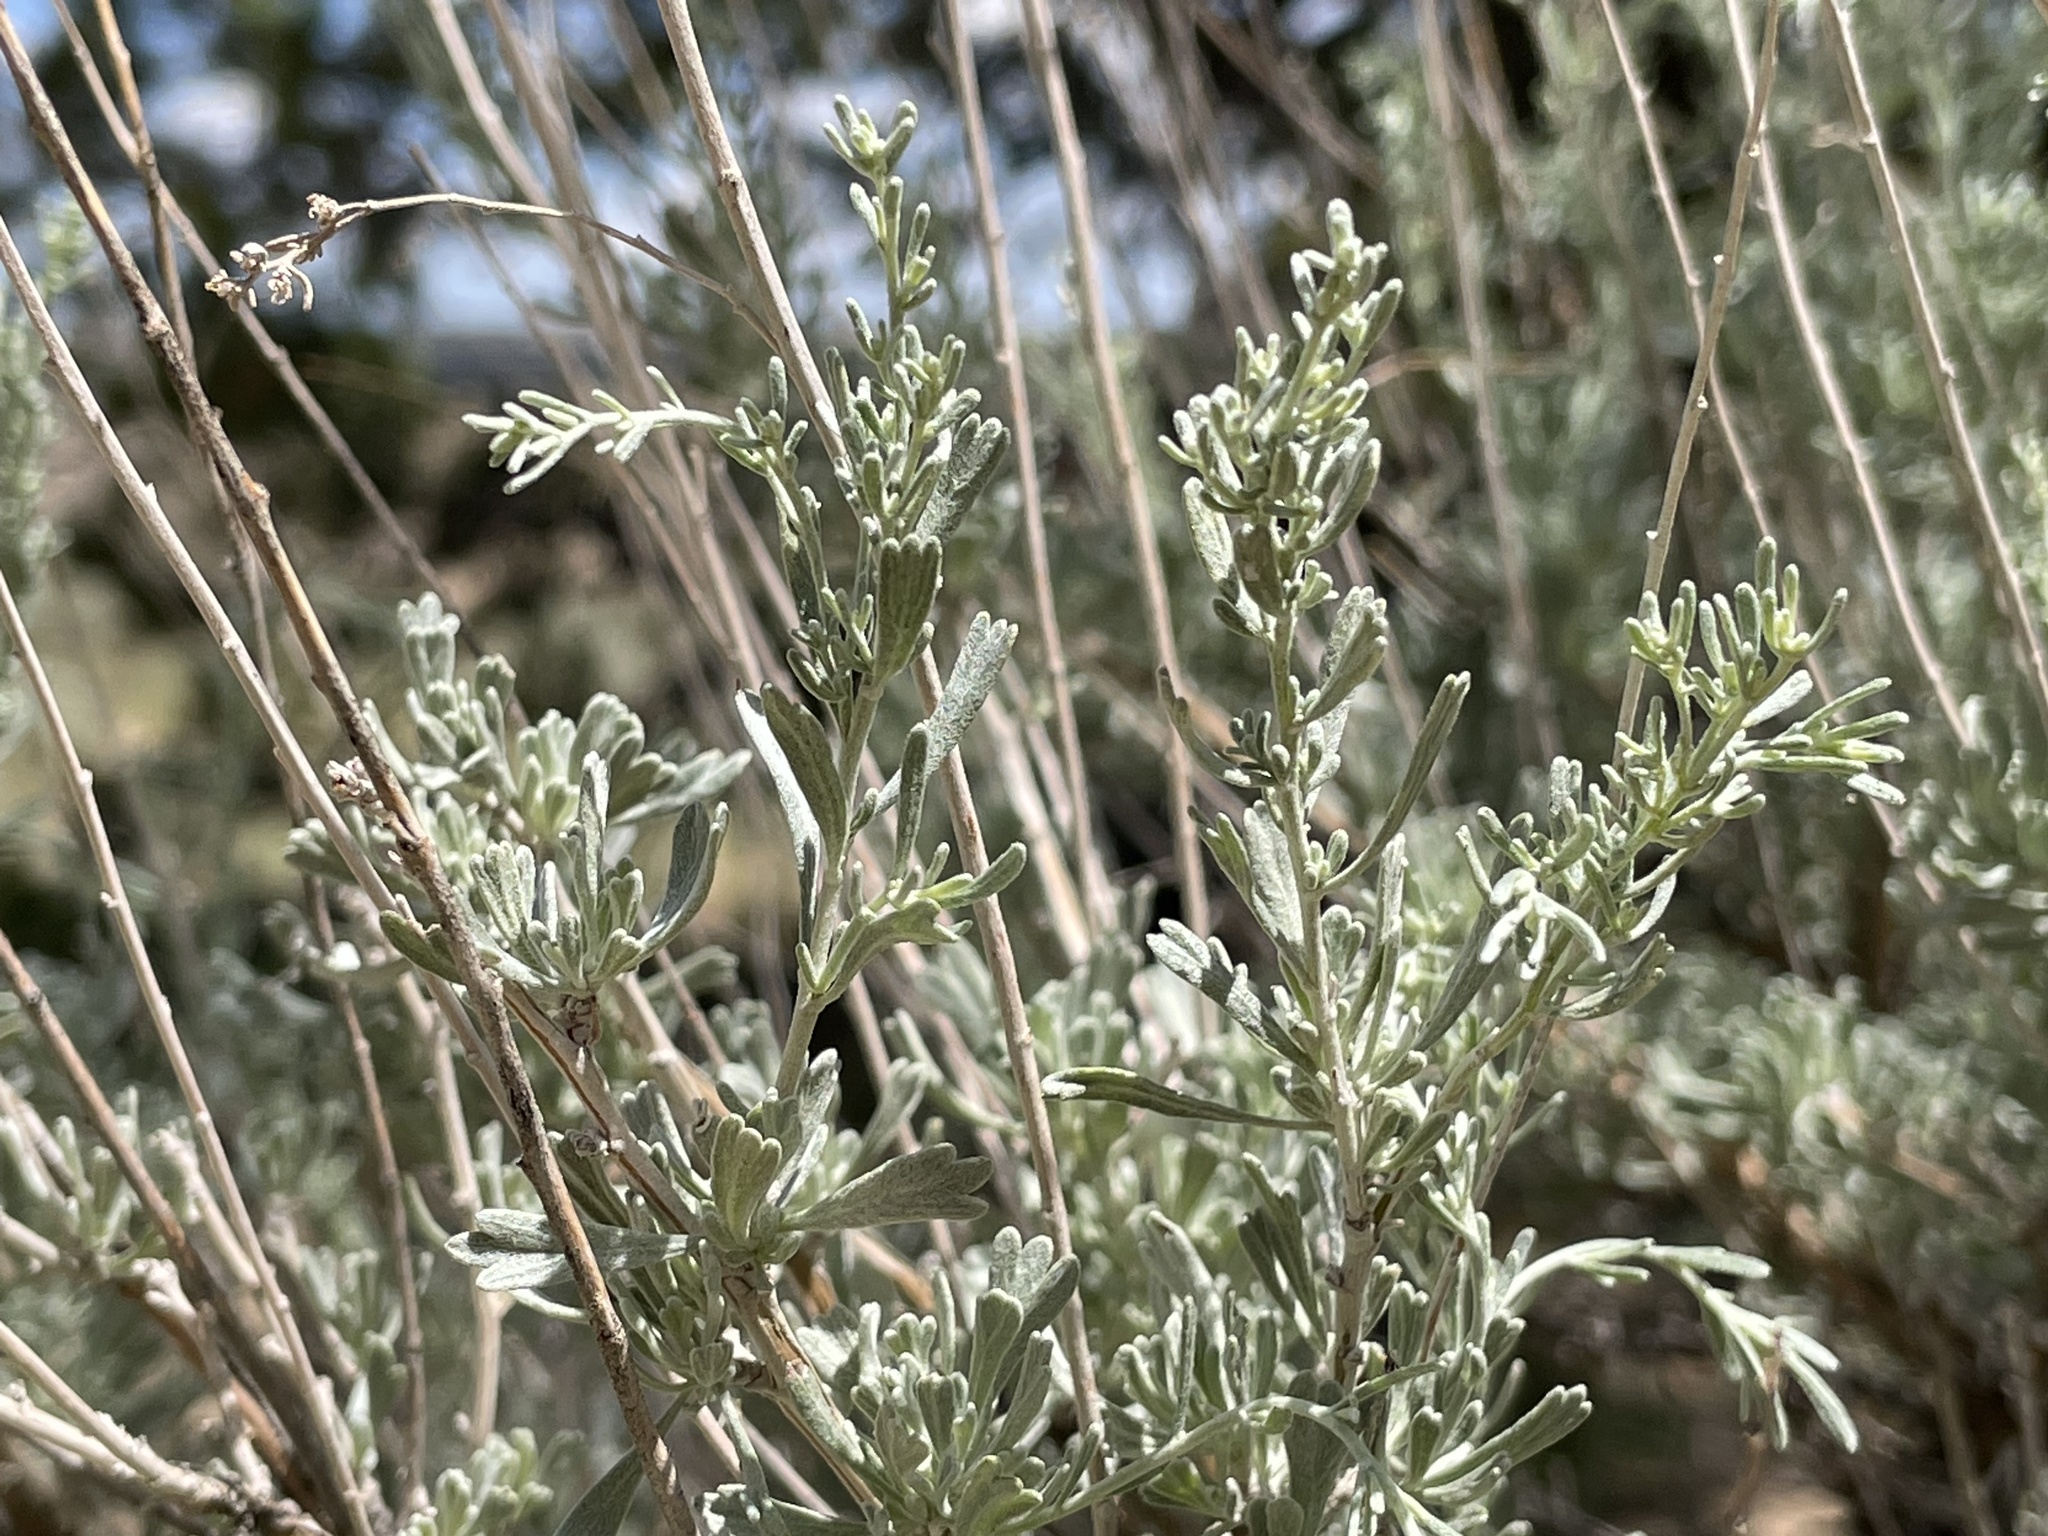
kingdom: Plantae
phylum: Tracheophyta
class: Magnoliopsida
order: Asterales
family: Asteraceae
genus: Artemisia
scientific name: Artemisia tridentata
